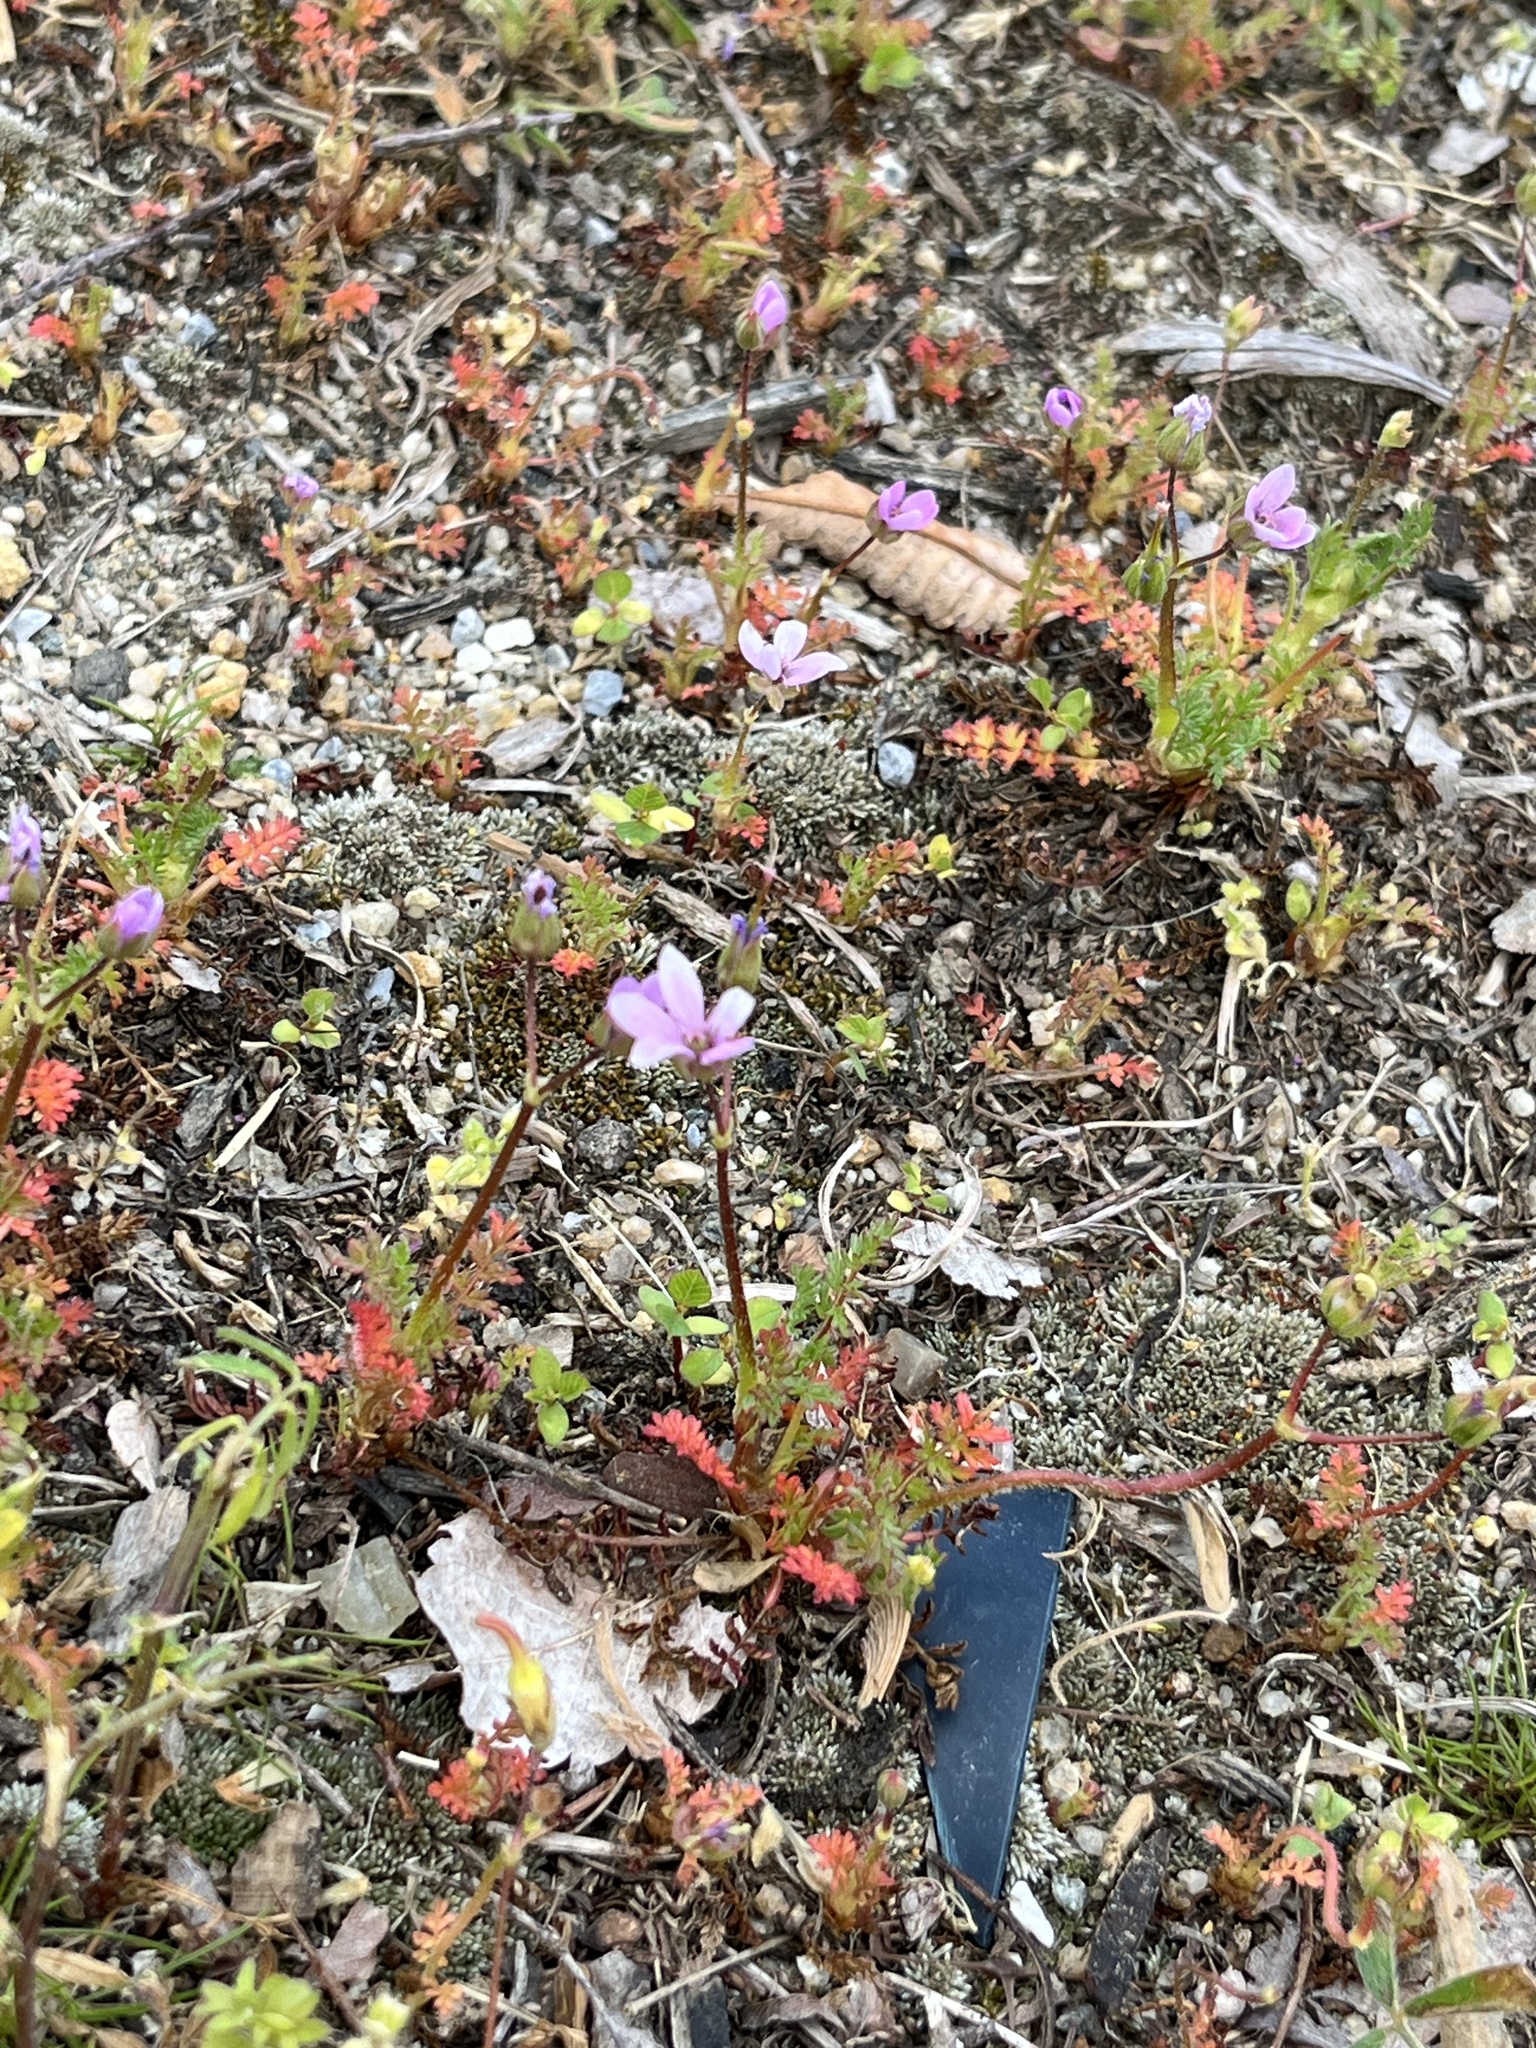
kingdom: Plantae
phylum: Tracheophyta
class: Magnoliopsida
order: Geraniales
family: Geraniaceae
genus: Erodium
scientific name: Erodium cicutarium
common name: Common stork's-bill
